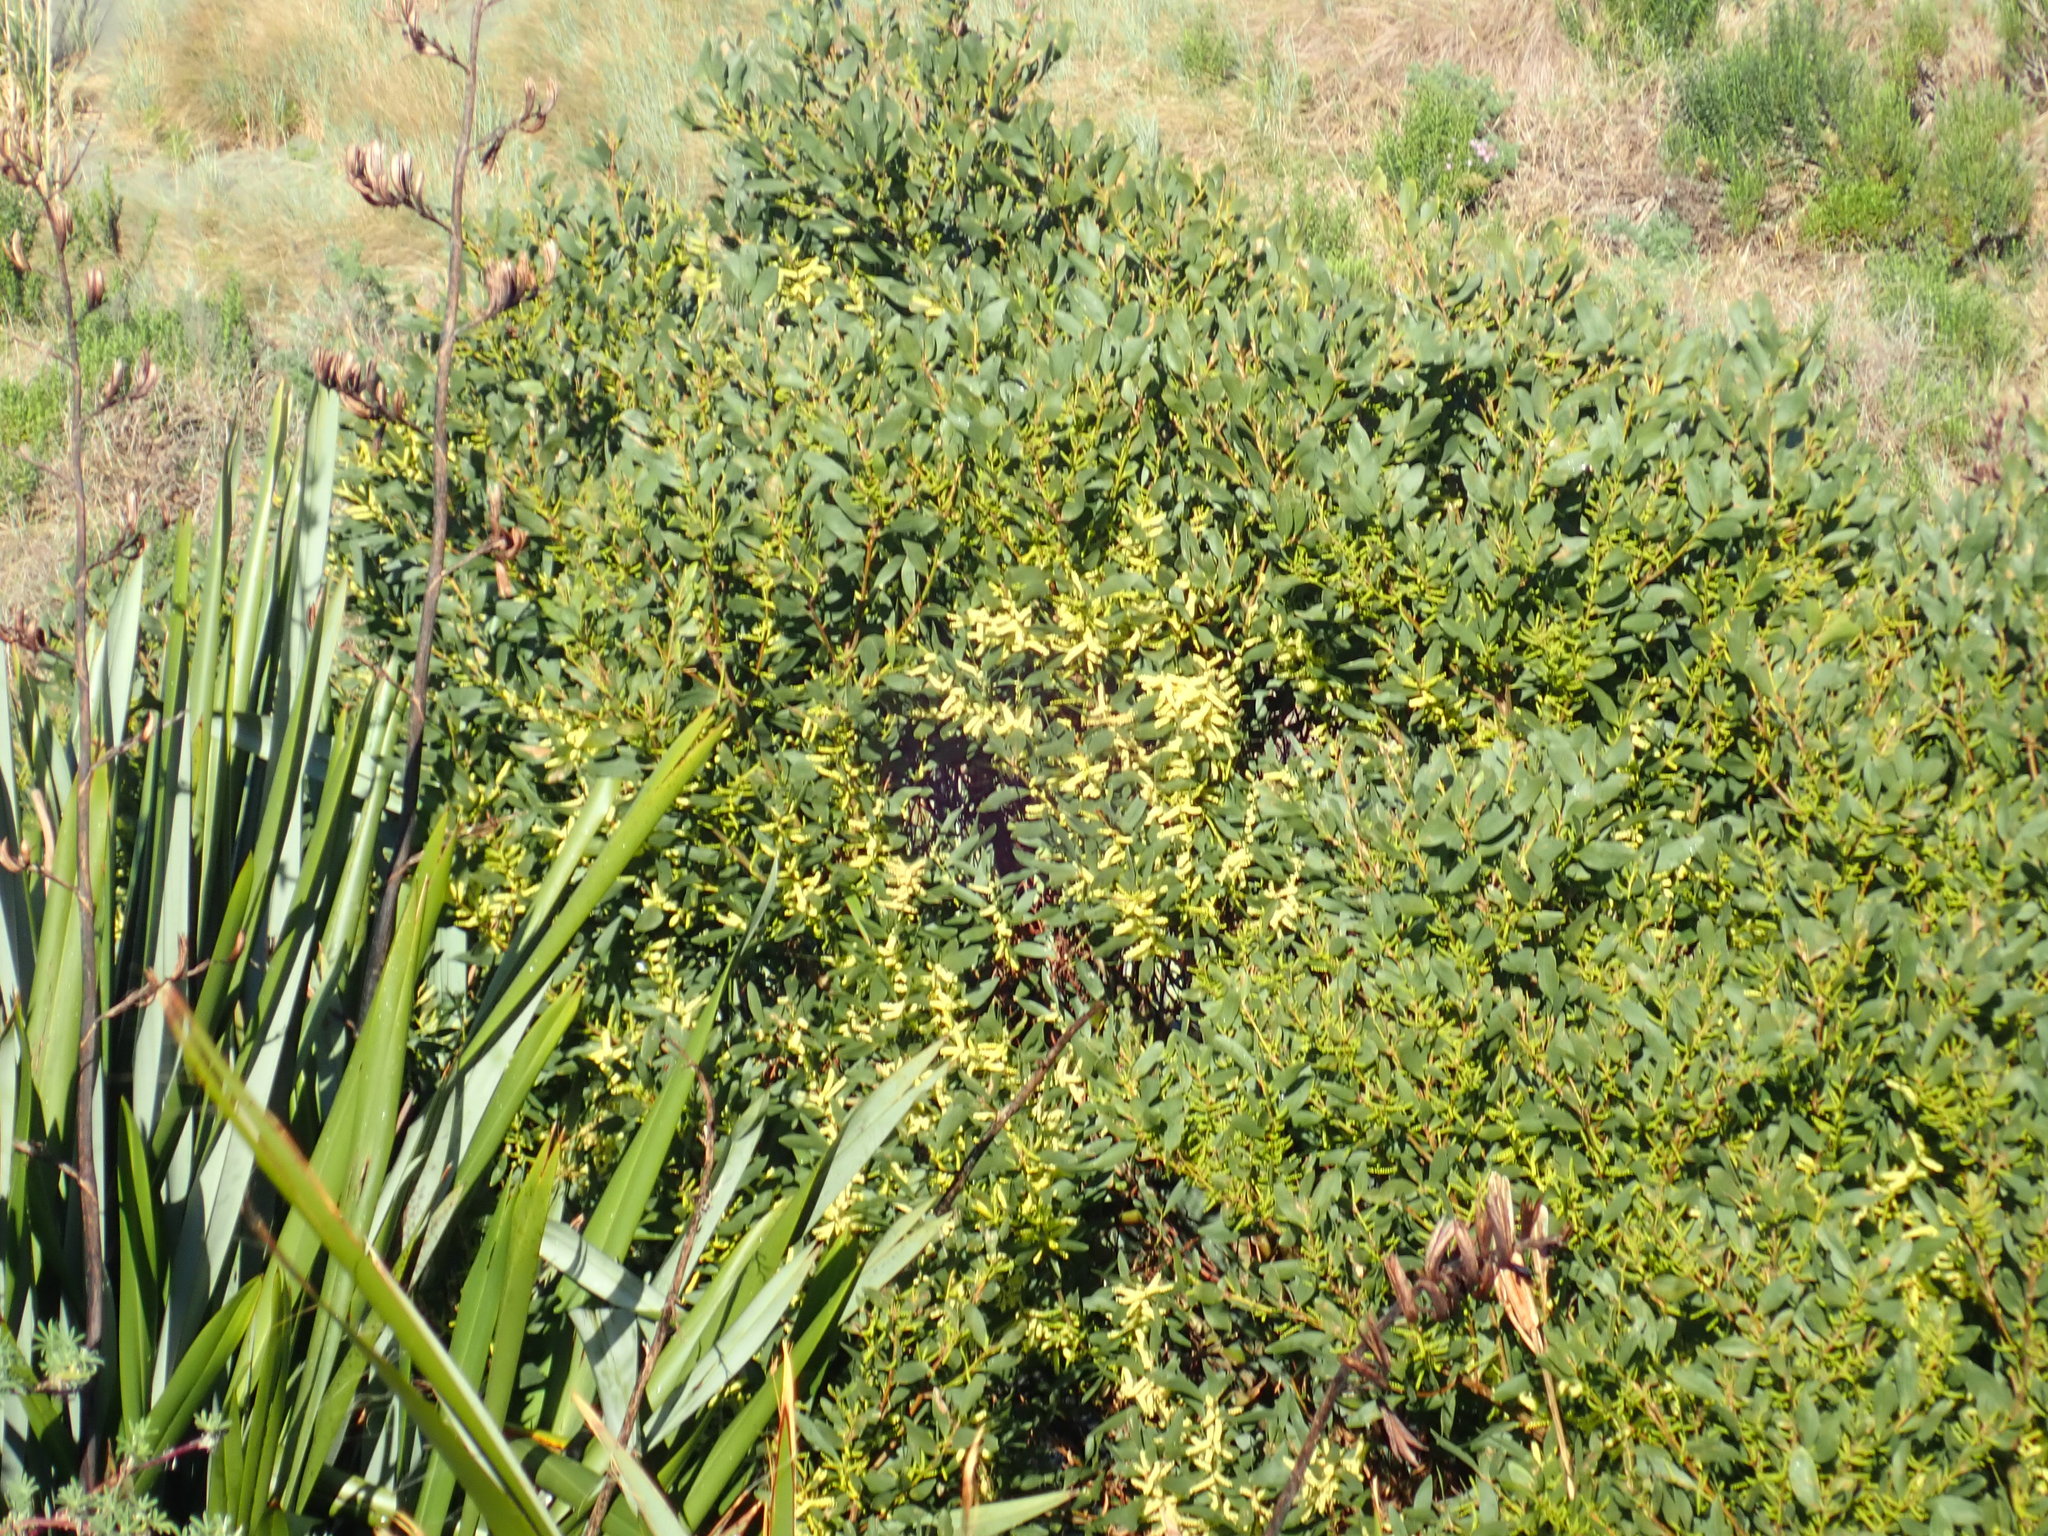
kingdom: Plantae
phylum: Tracheophyta
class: Magnoliopsida
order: Fabales
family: Fabaceae
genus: Acacia
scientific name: Acacia longifolia
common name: Sydney golden wattle
